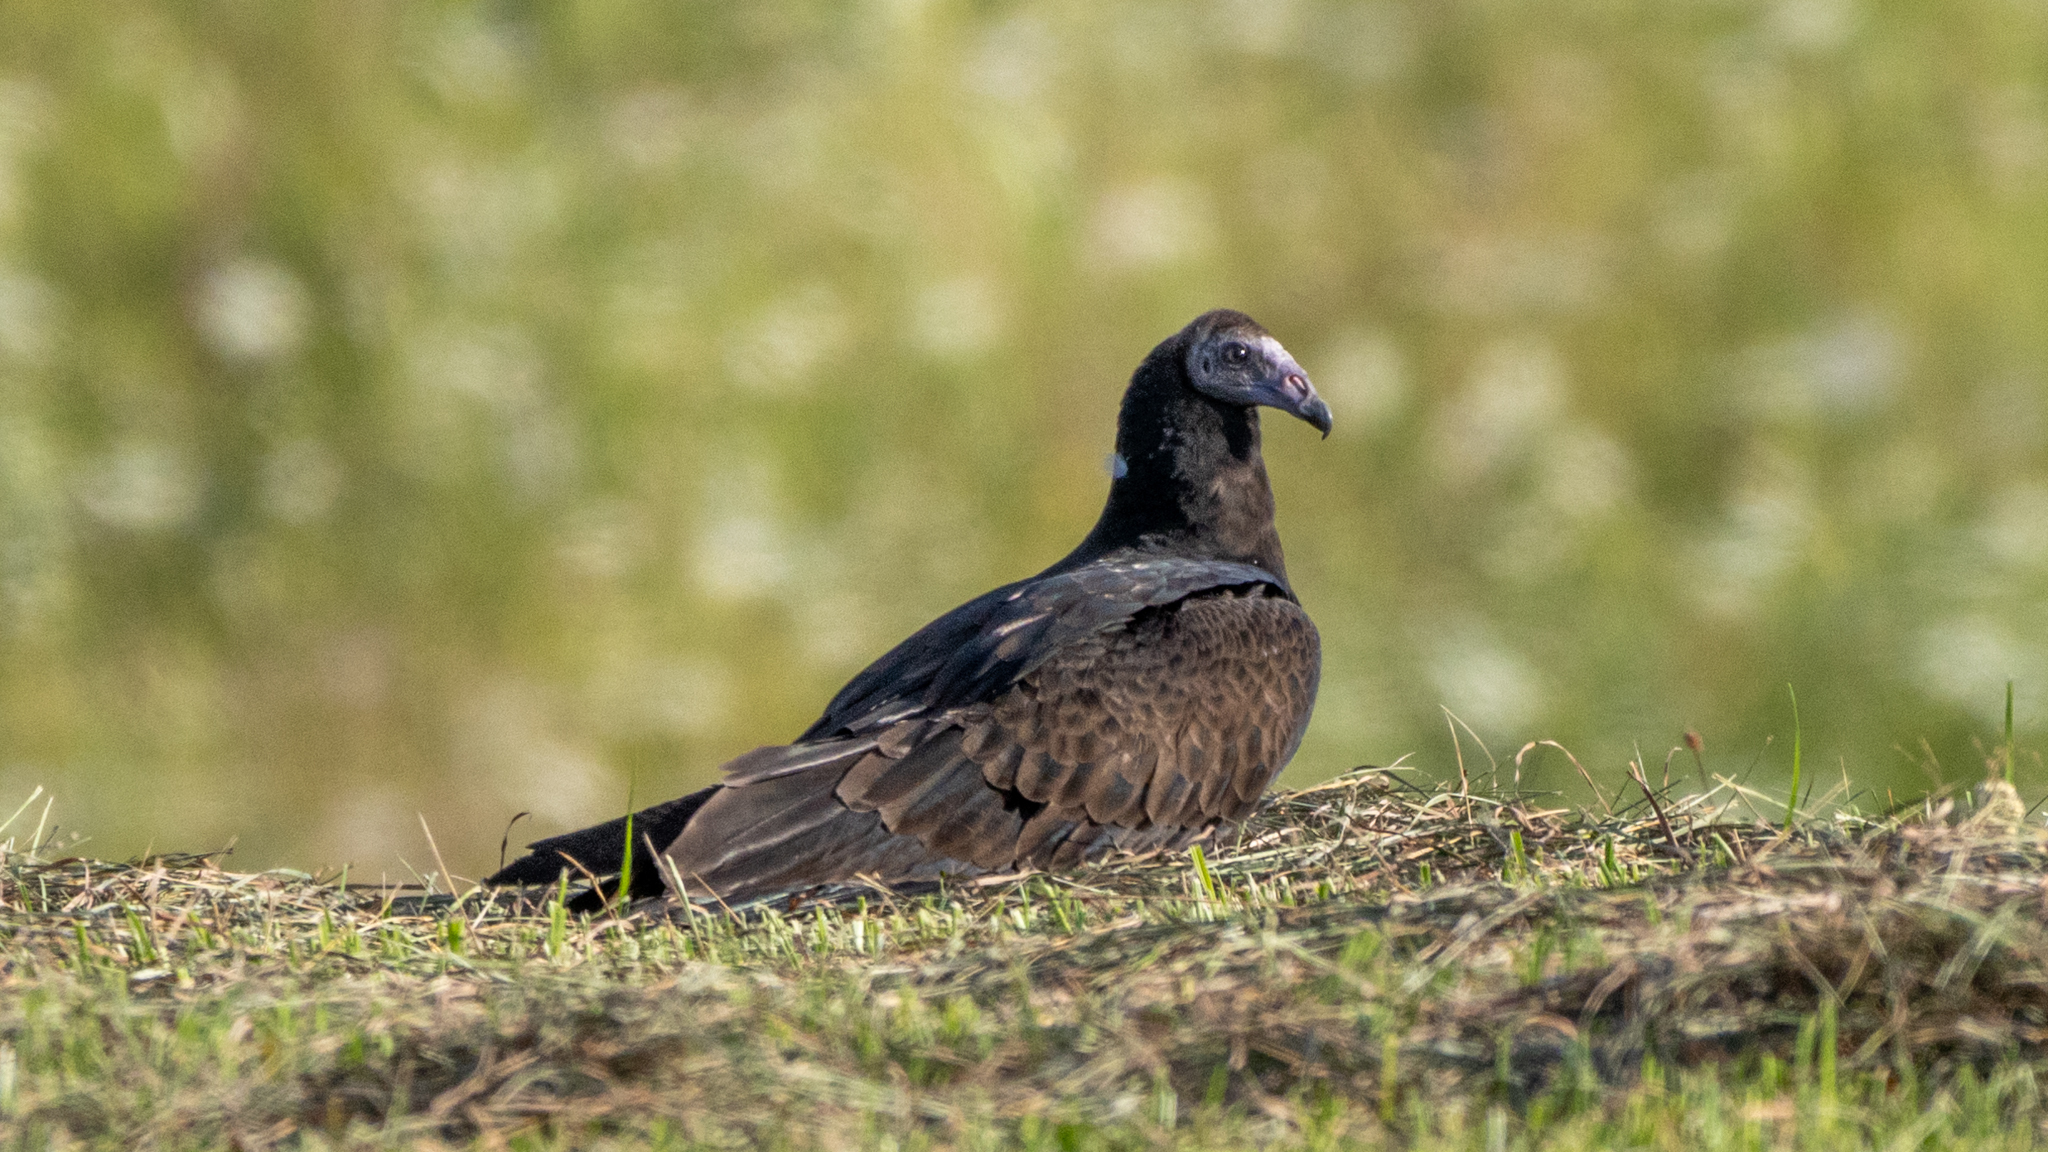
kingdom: Animalia
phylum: Chordata
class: Aves
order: Accipitriformes
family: Cathartidae
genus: Cathartes
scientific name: Cathartes aura
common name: Turkey vulture
